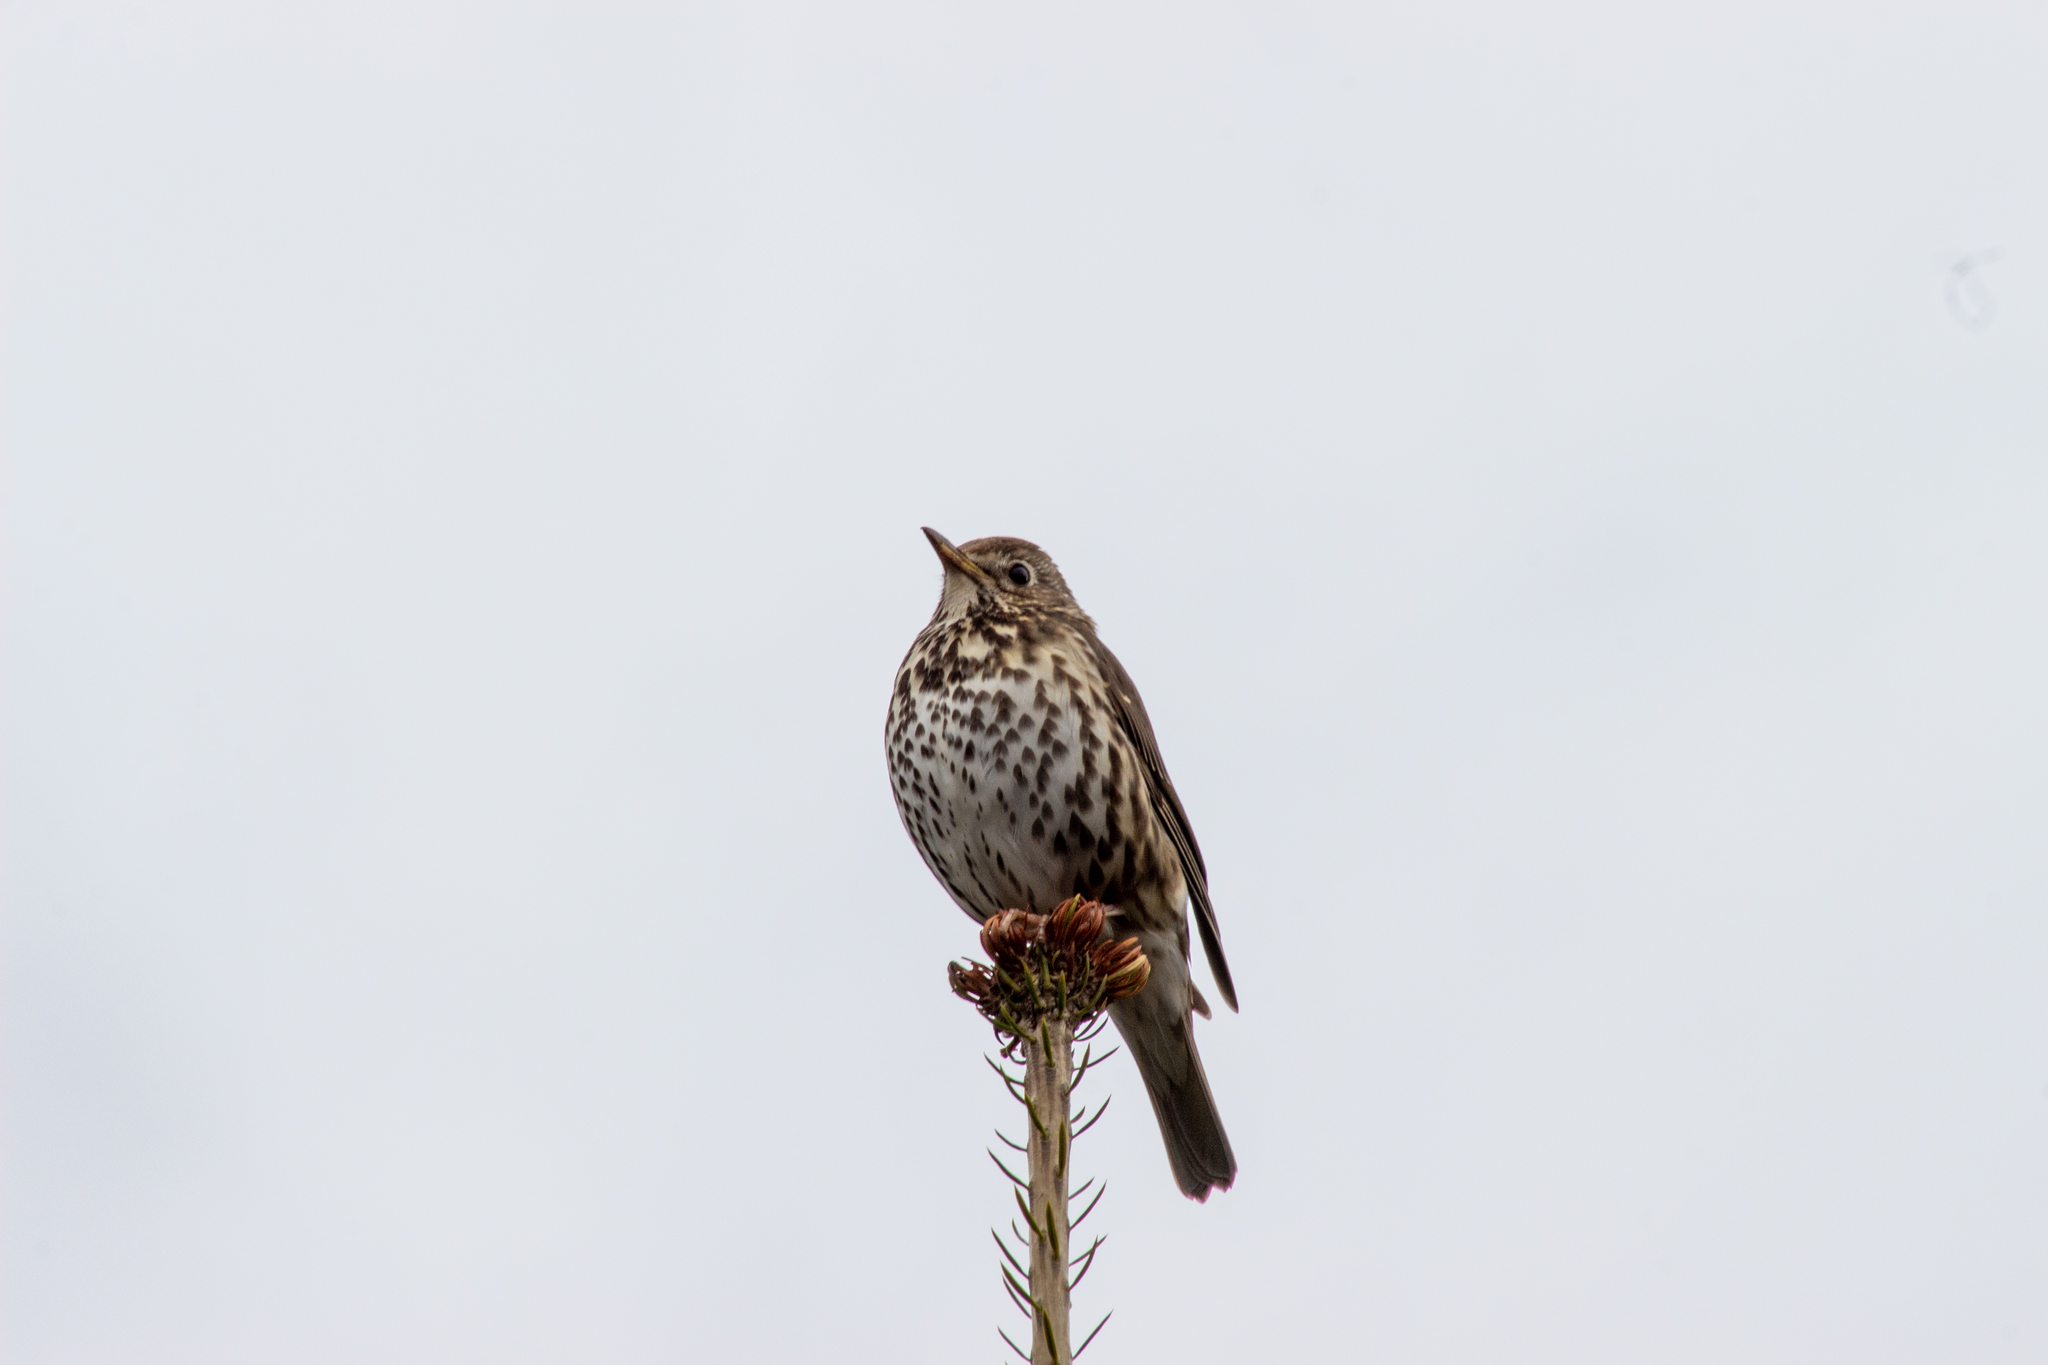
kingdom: Animalia
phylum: Chordata
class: Aves
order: Passeriformes
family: Turdidae
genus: Turdus
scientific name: Turdus philomelos
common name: Song thrush
